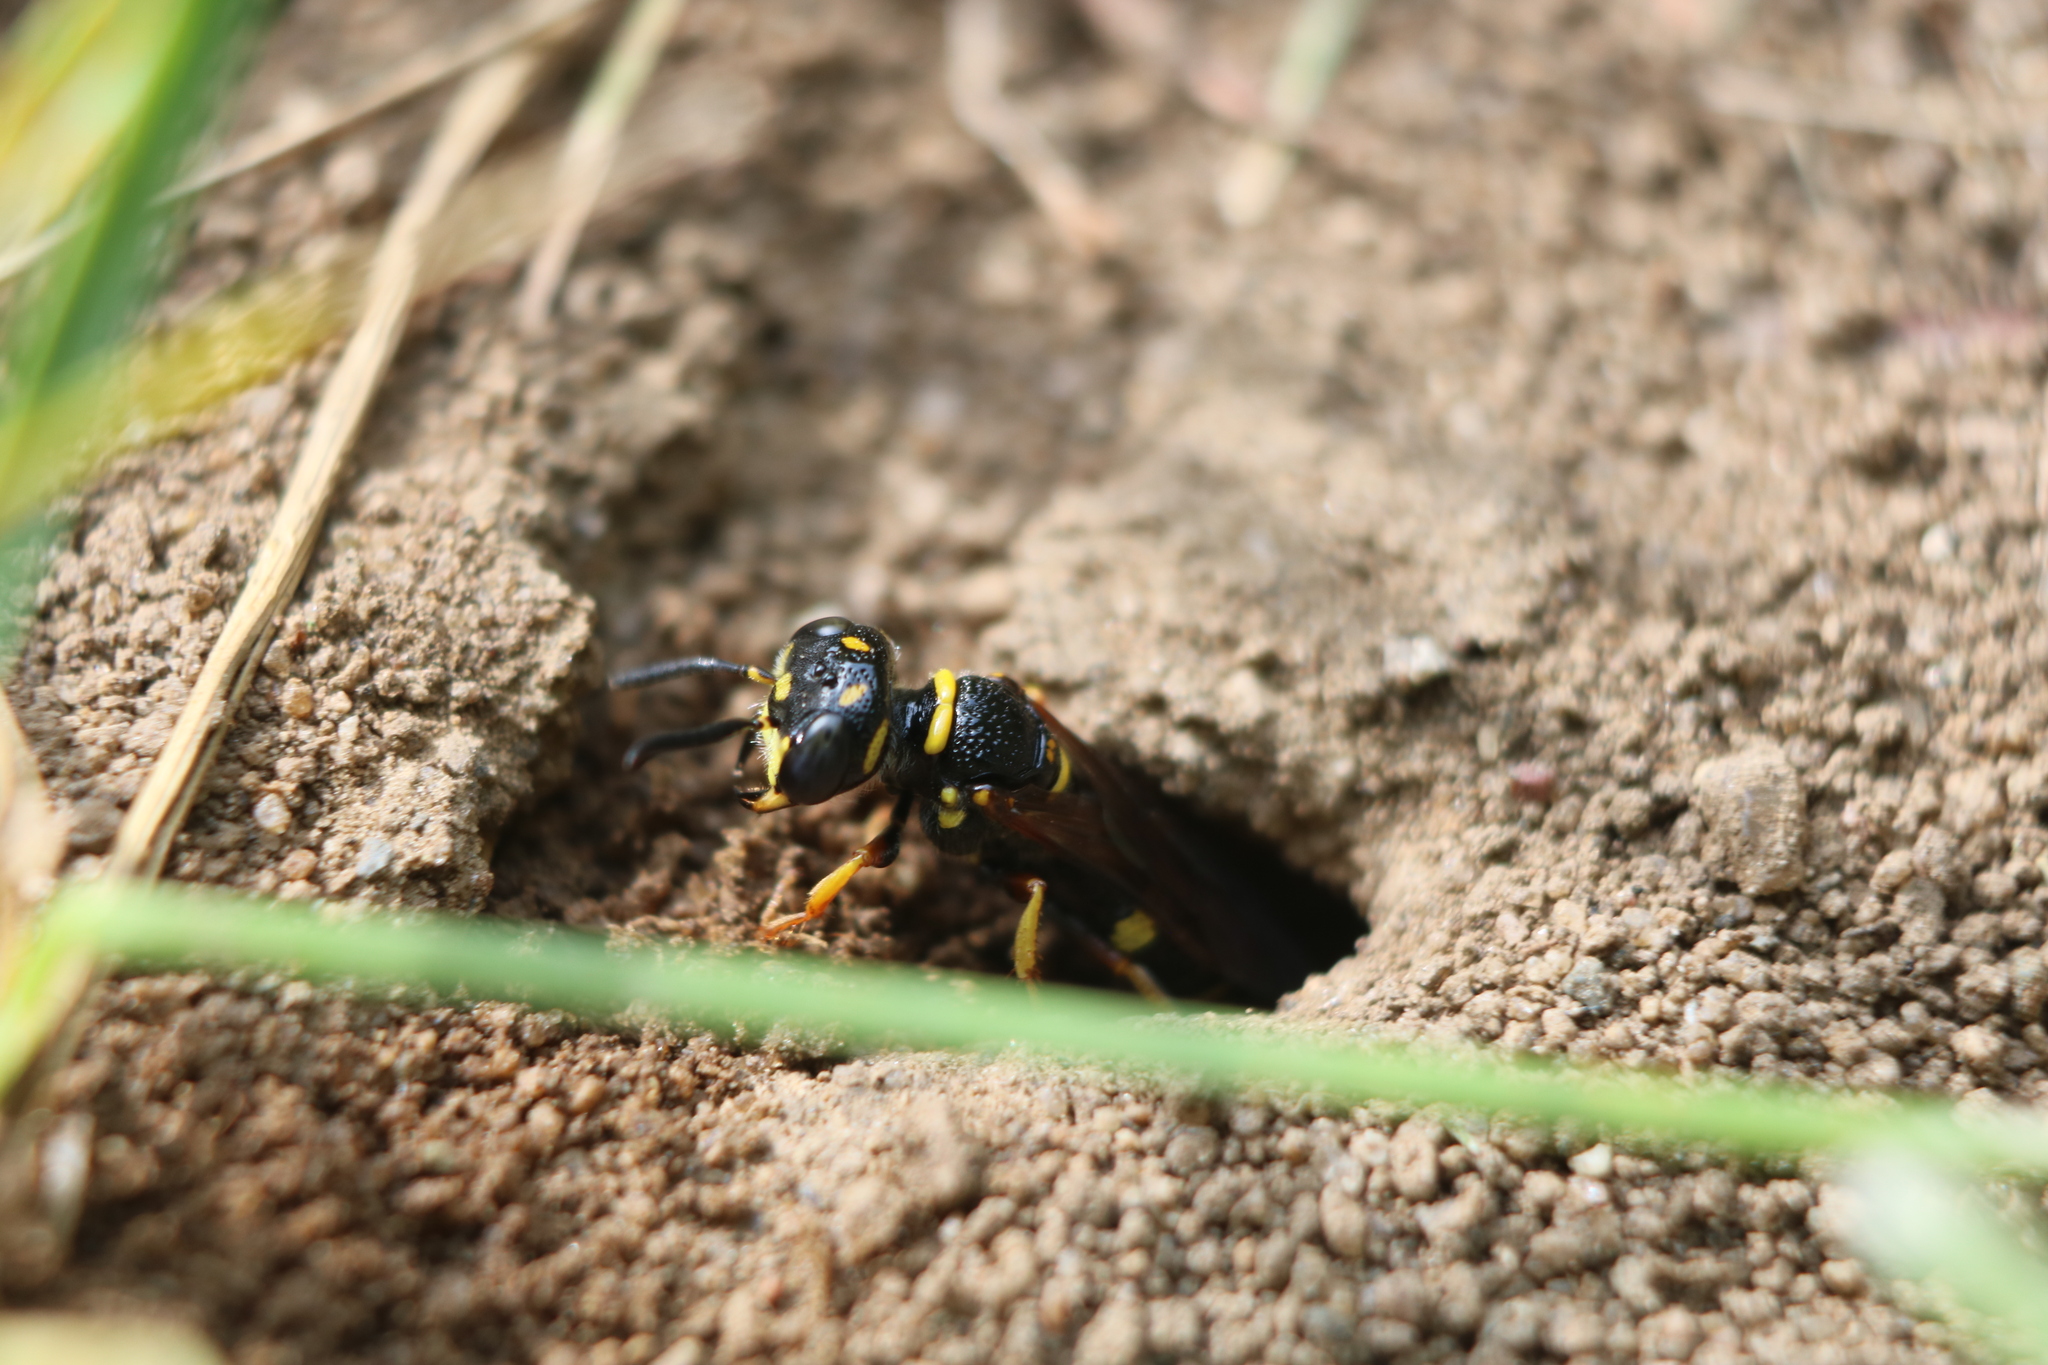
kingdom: Animalia
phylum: Arthropoda
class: Insecta
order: Hymenoptera
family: Crabronidae
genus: Philanthus
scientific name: Philanthus gibbosus
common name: Humped beewolf
